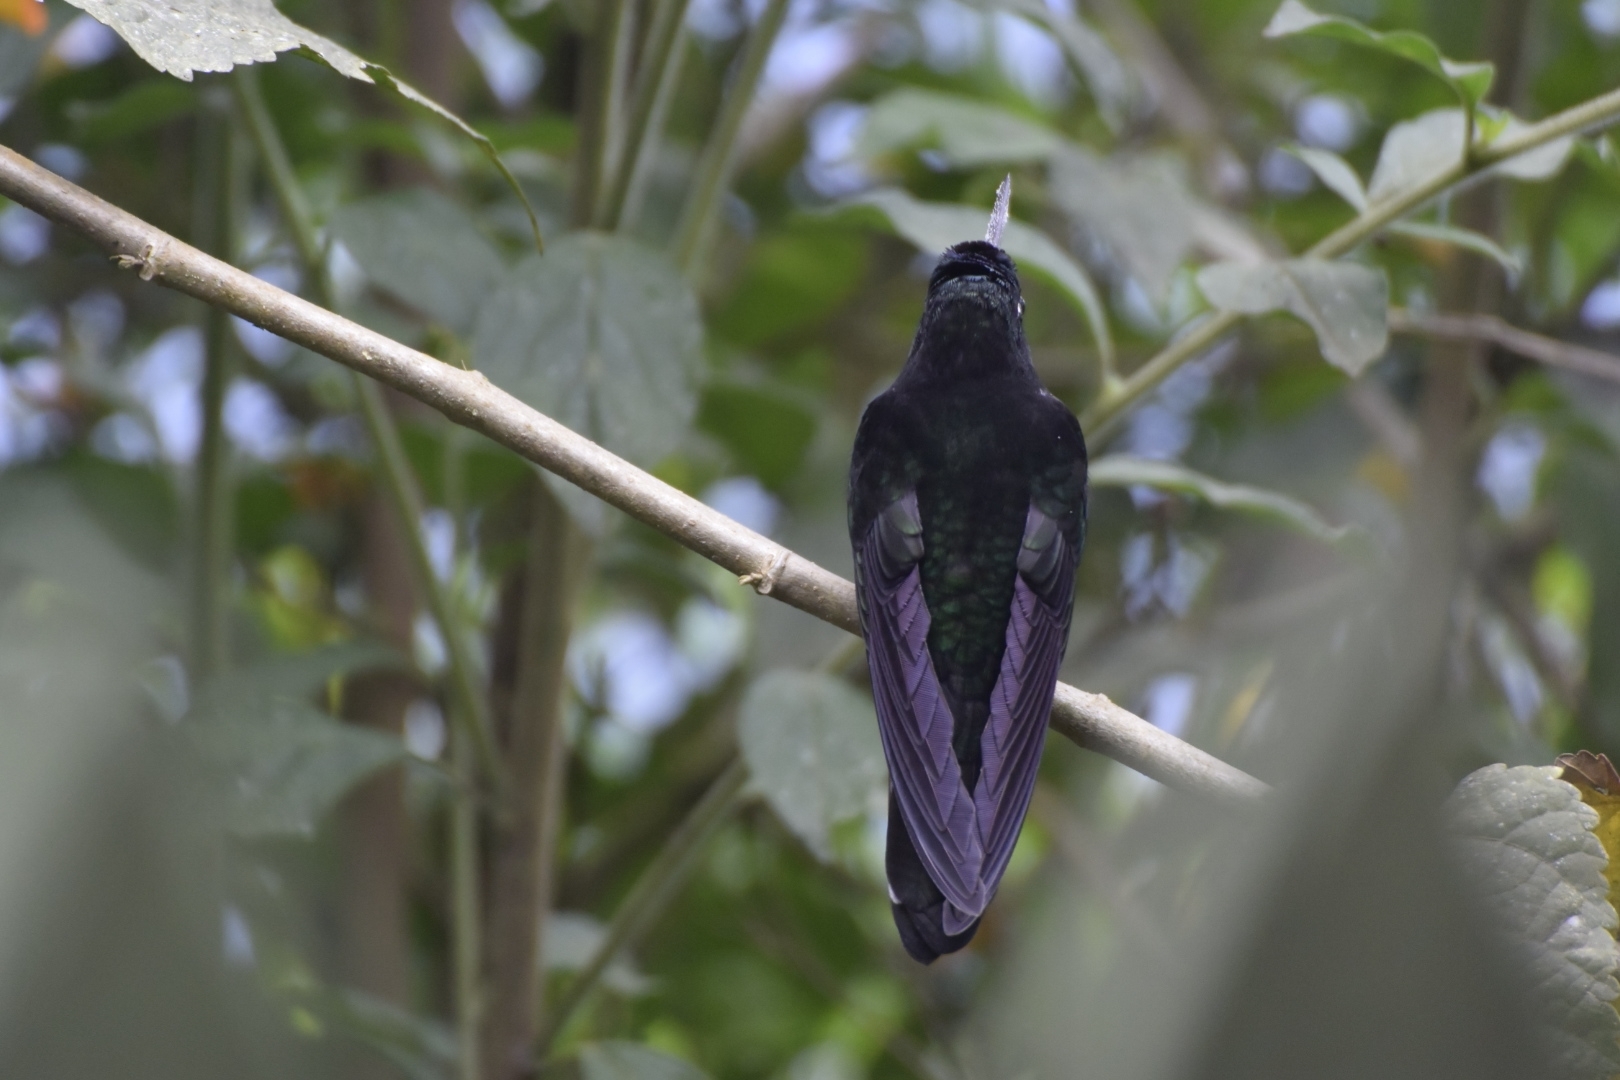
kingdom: Animalia
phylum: Chordata
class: Aves
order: Apodiformes
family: Trochilidae
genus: Coeligena
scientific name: Coeligena torquata
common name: Collared inca
